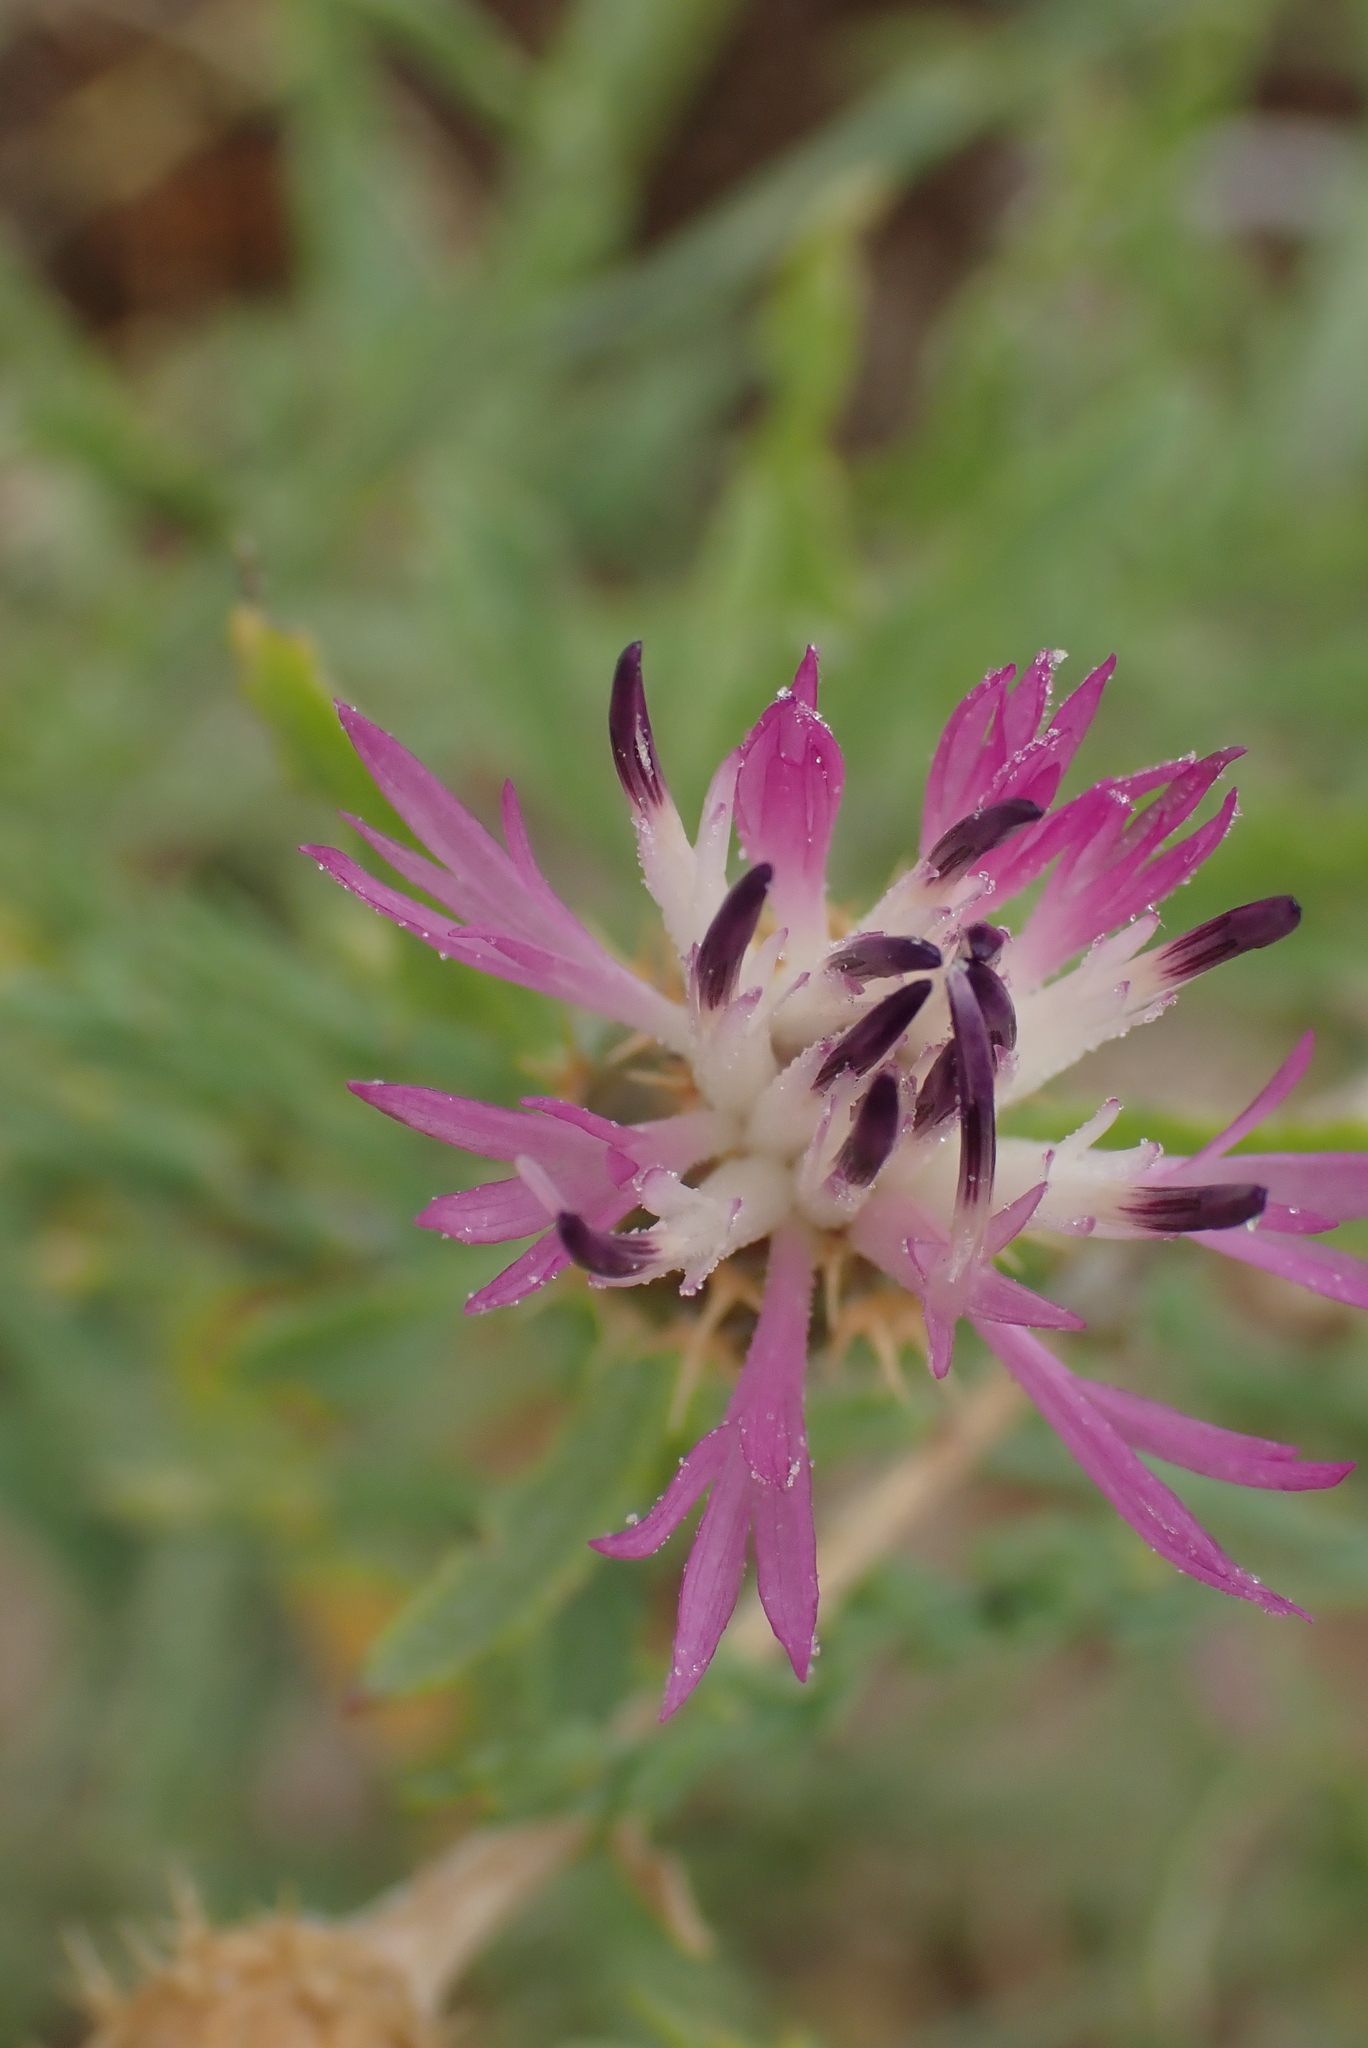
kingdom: Plantae
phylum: Tracheophyta
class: Magnoliopsida
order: Asterales
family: Asteraceae
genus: Centaurea
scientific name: Centaurea aspera
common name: Rough star-thistle
